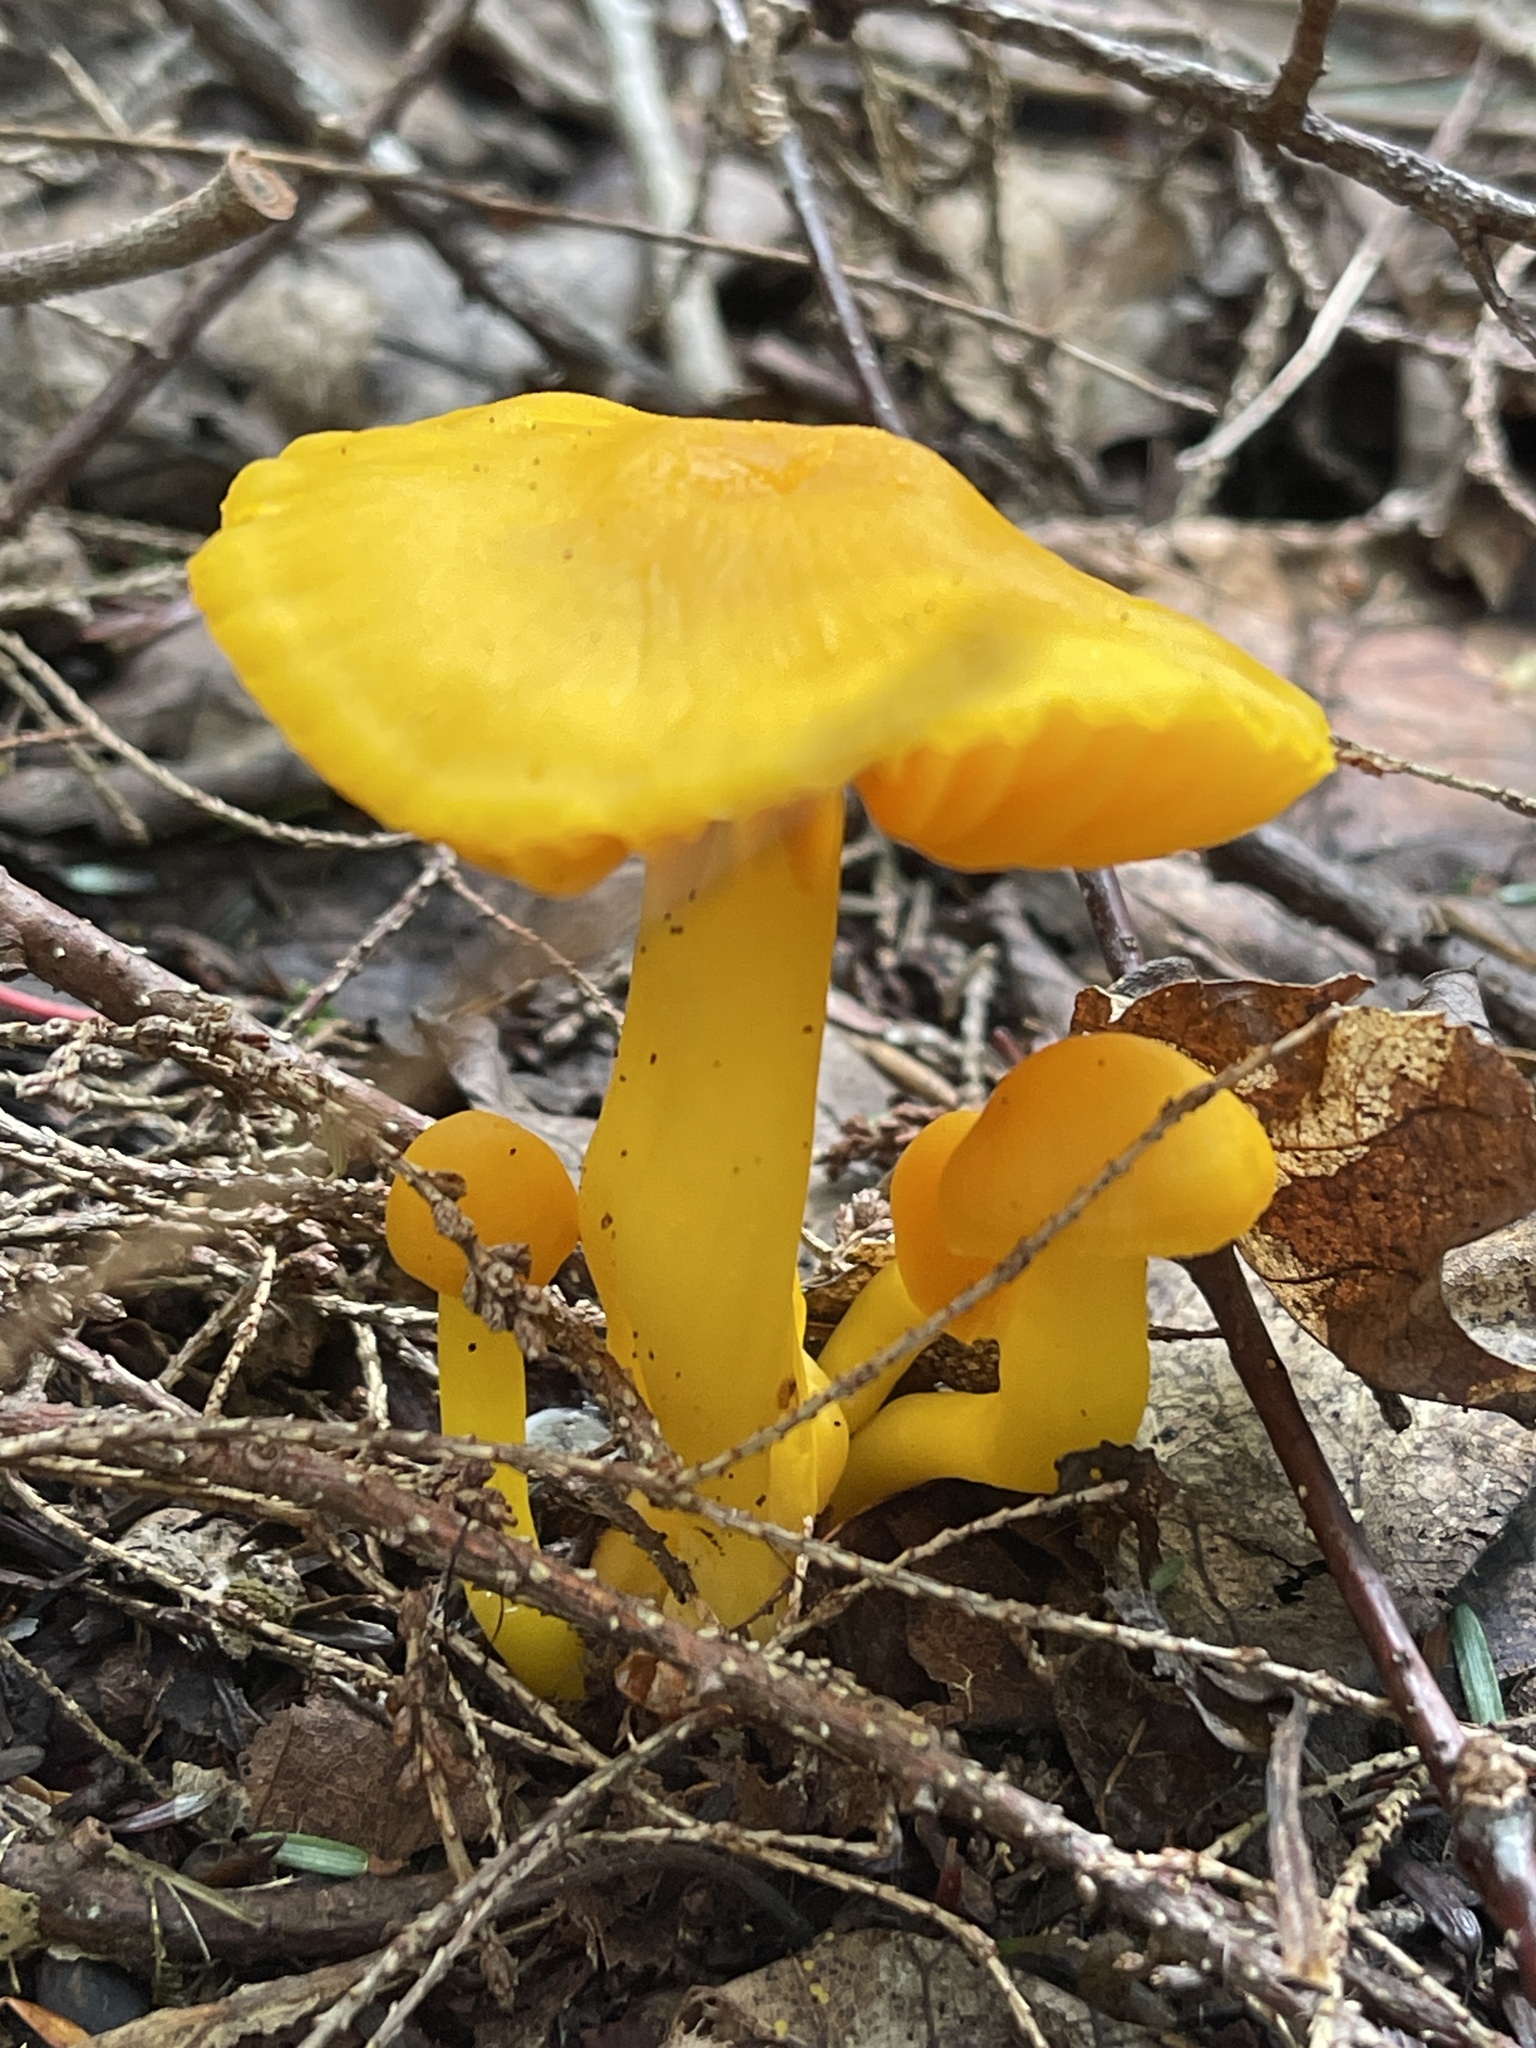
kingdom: Fungi
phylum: Basidiomycota
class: Agaricomycetes
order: Agaricales
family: Hygrophoraceae
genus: Humidicutis
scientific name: Humidicutis marginata
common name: Orange gilled waxcap
